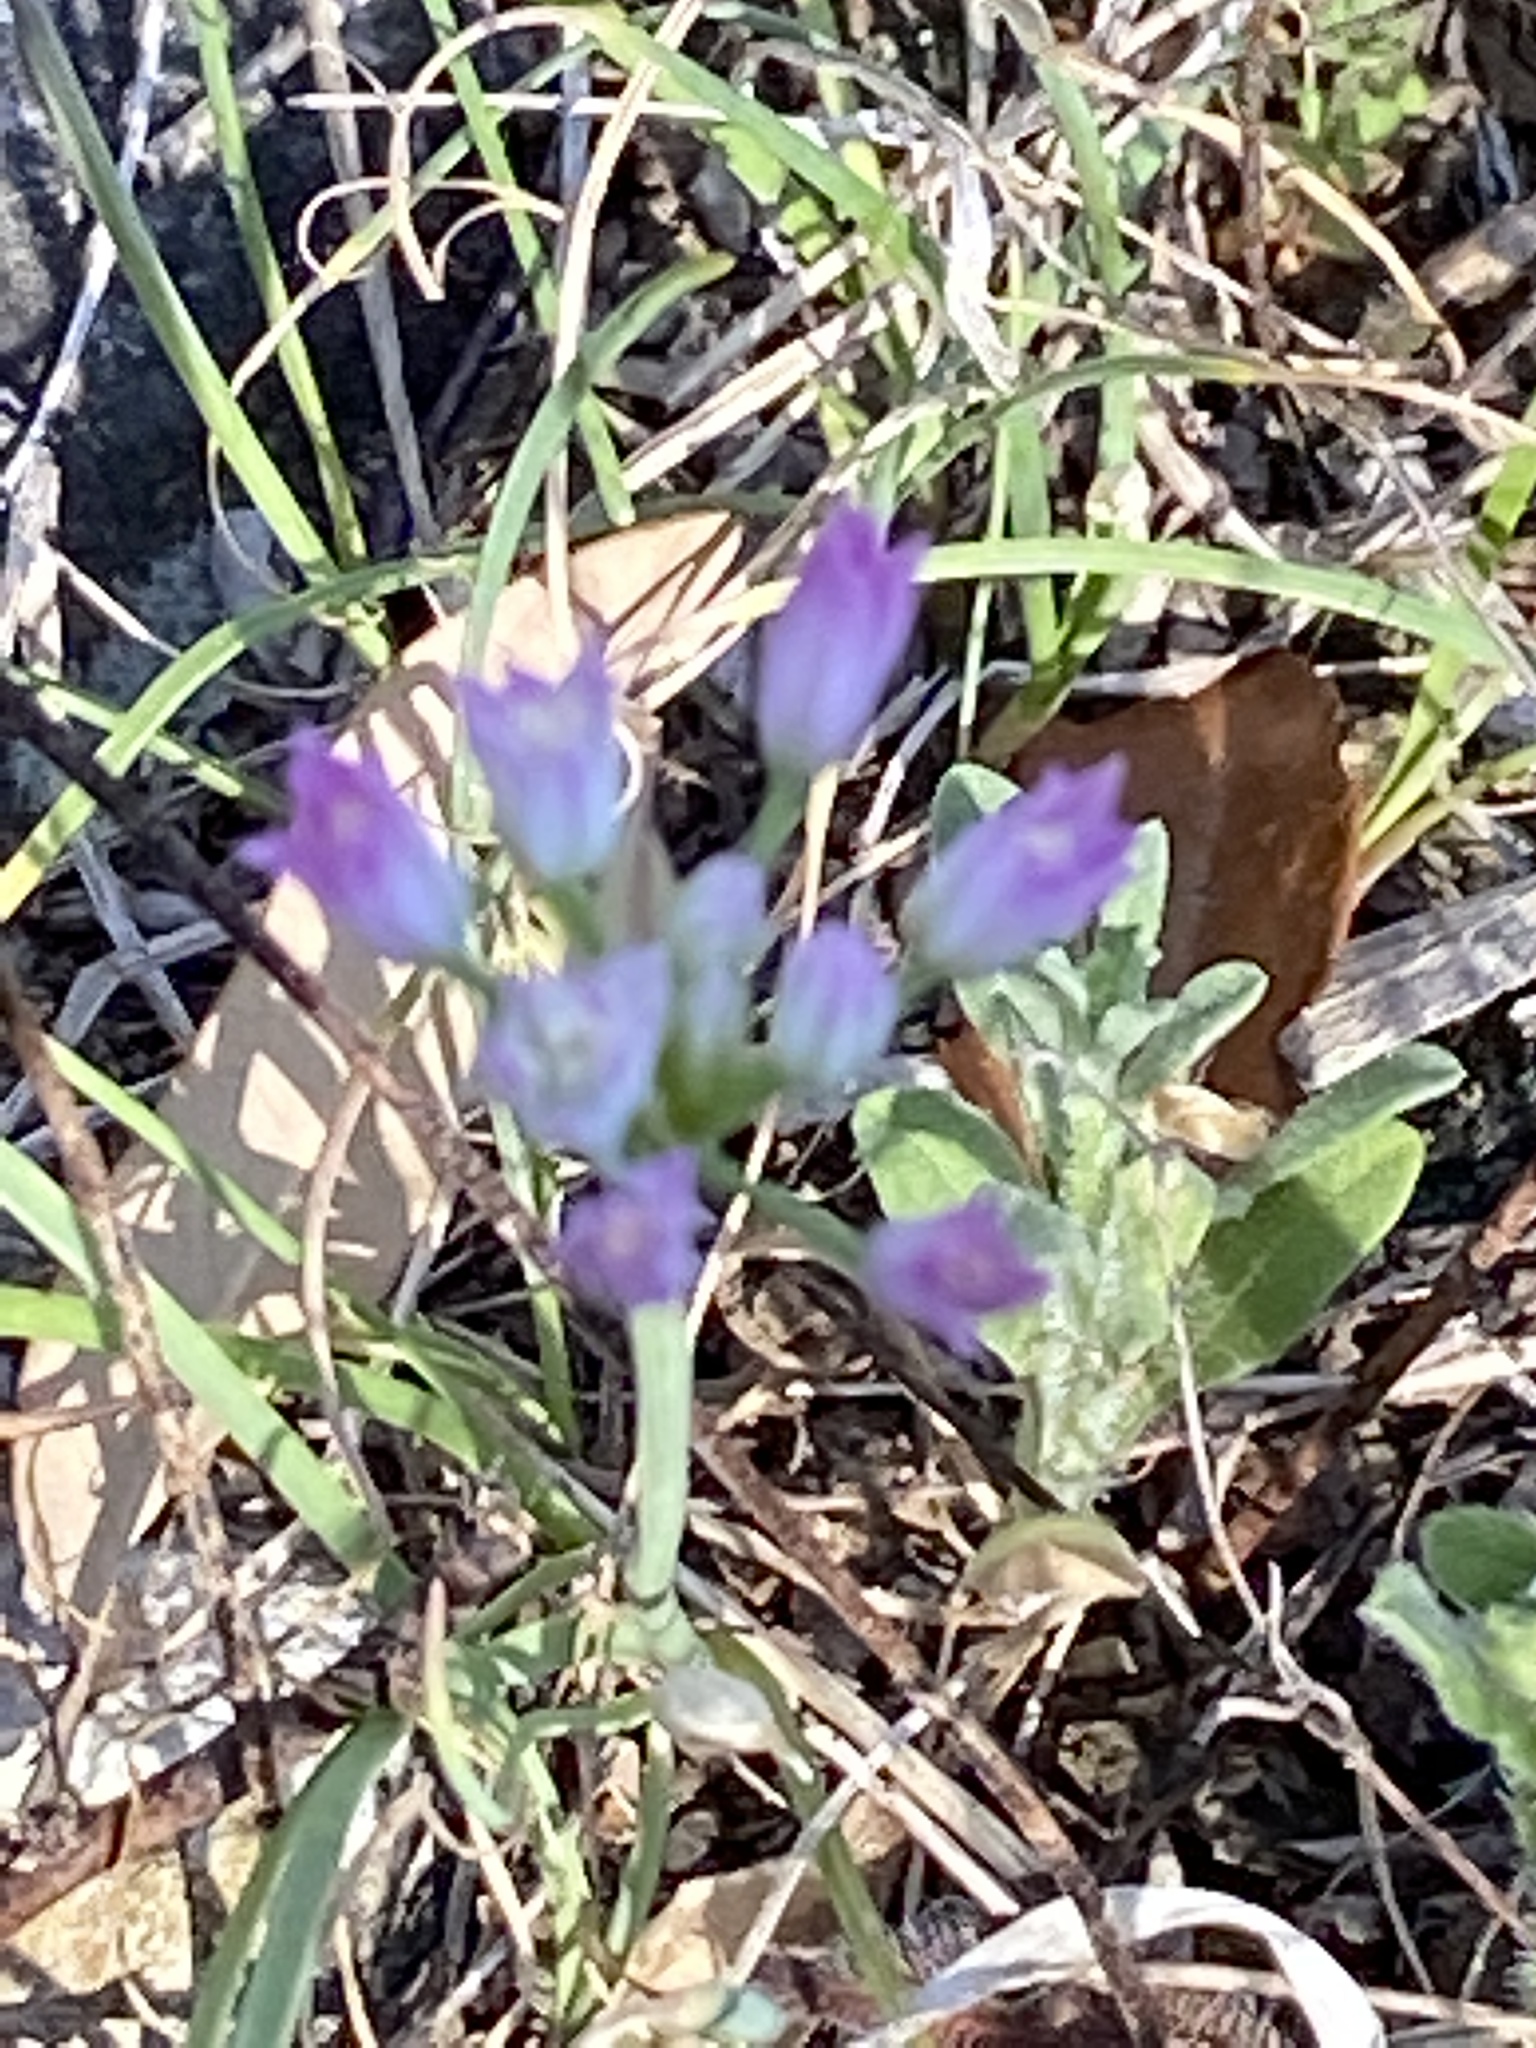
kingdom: Plantae
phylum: Tracheophyta
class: Liliopsida
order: Asparagales
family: Amaryllidaceae
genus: Allium
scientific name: Allium drummondii
